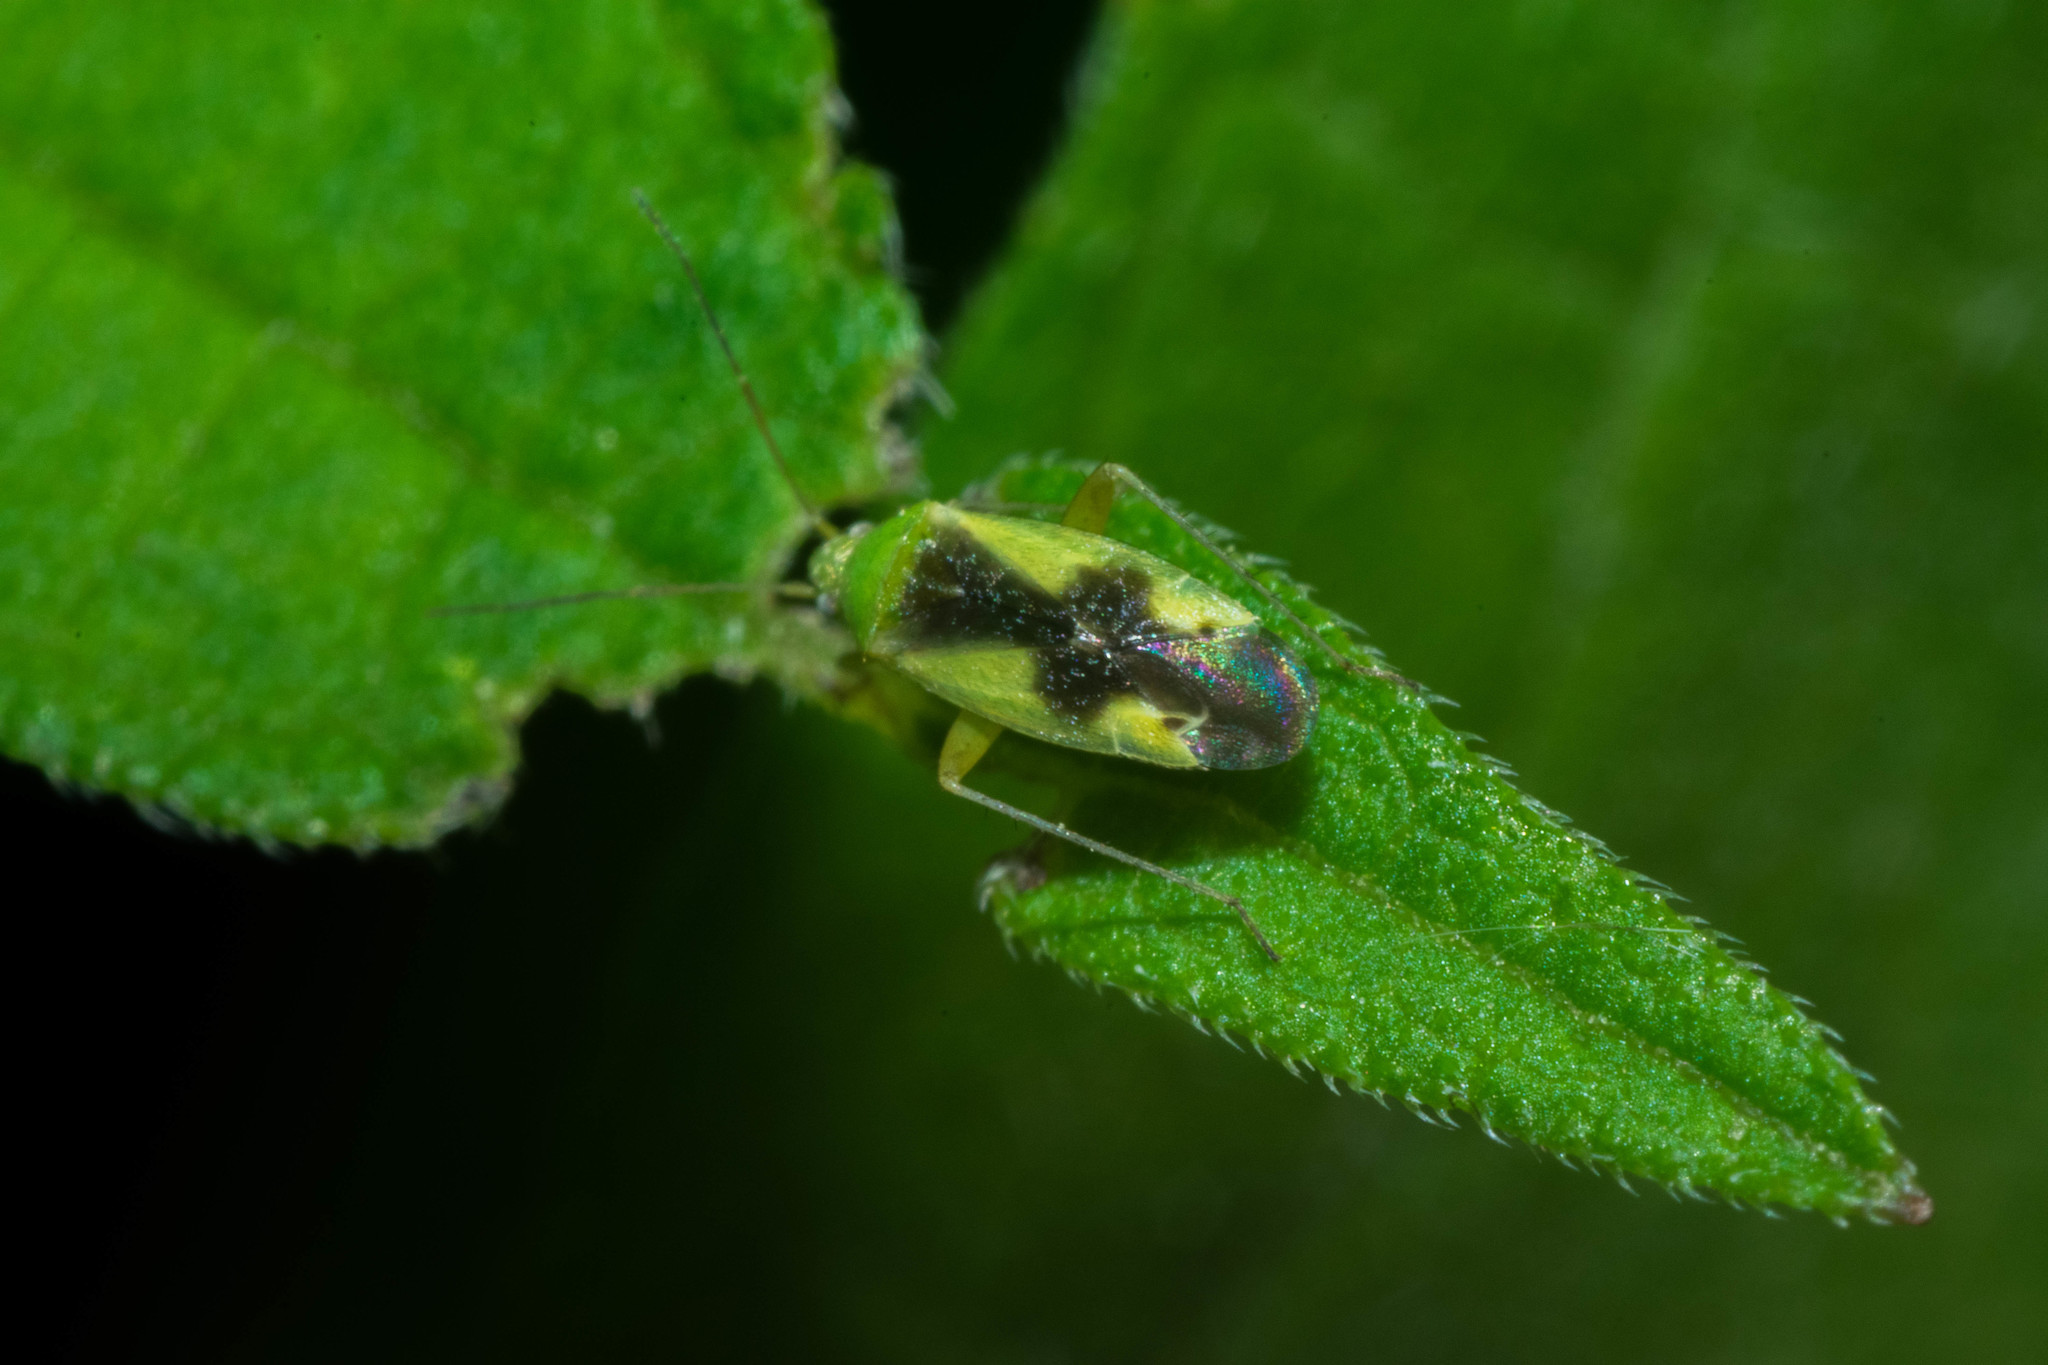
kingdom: Animalia
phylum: Arthropoda
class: Insecta
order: Hemiptera
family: Miridae
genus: Reuteroscopus
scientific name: Reuteroscopus ornatus
